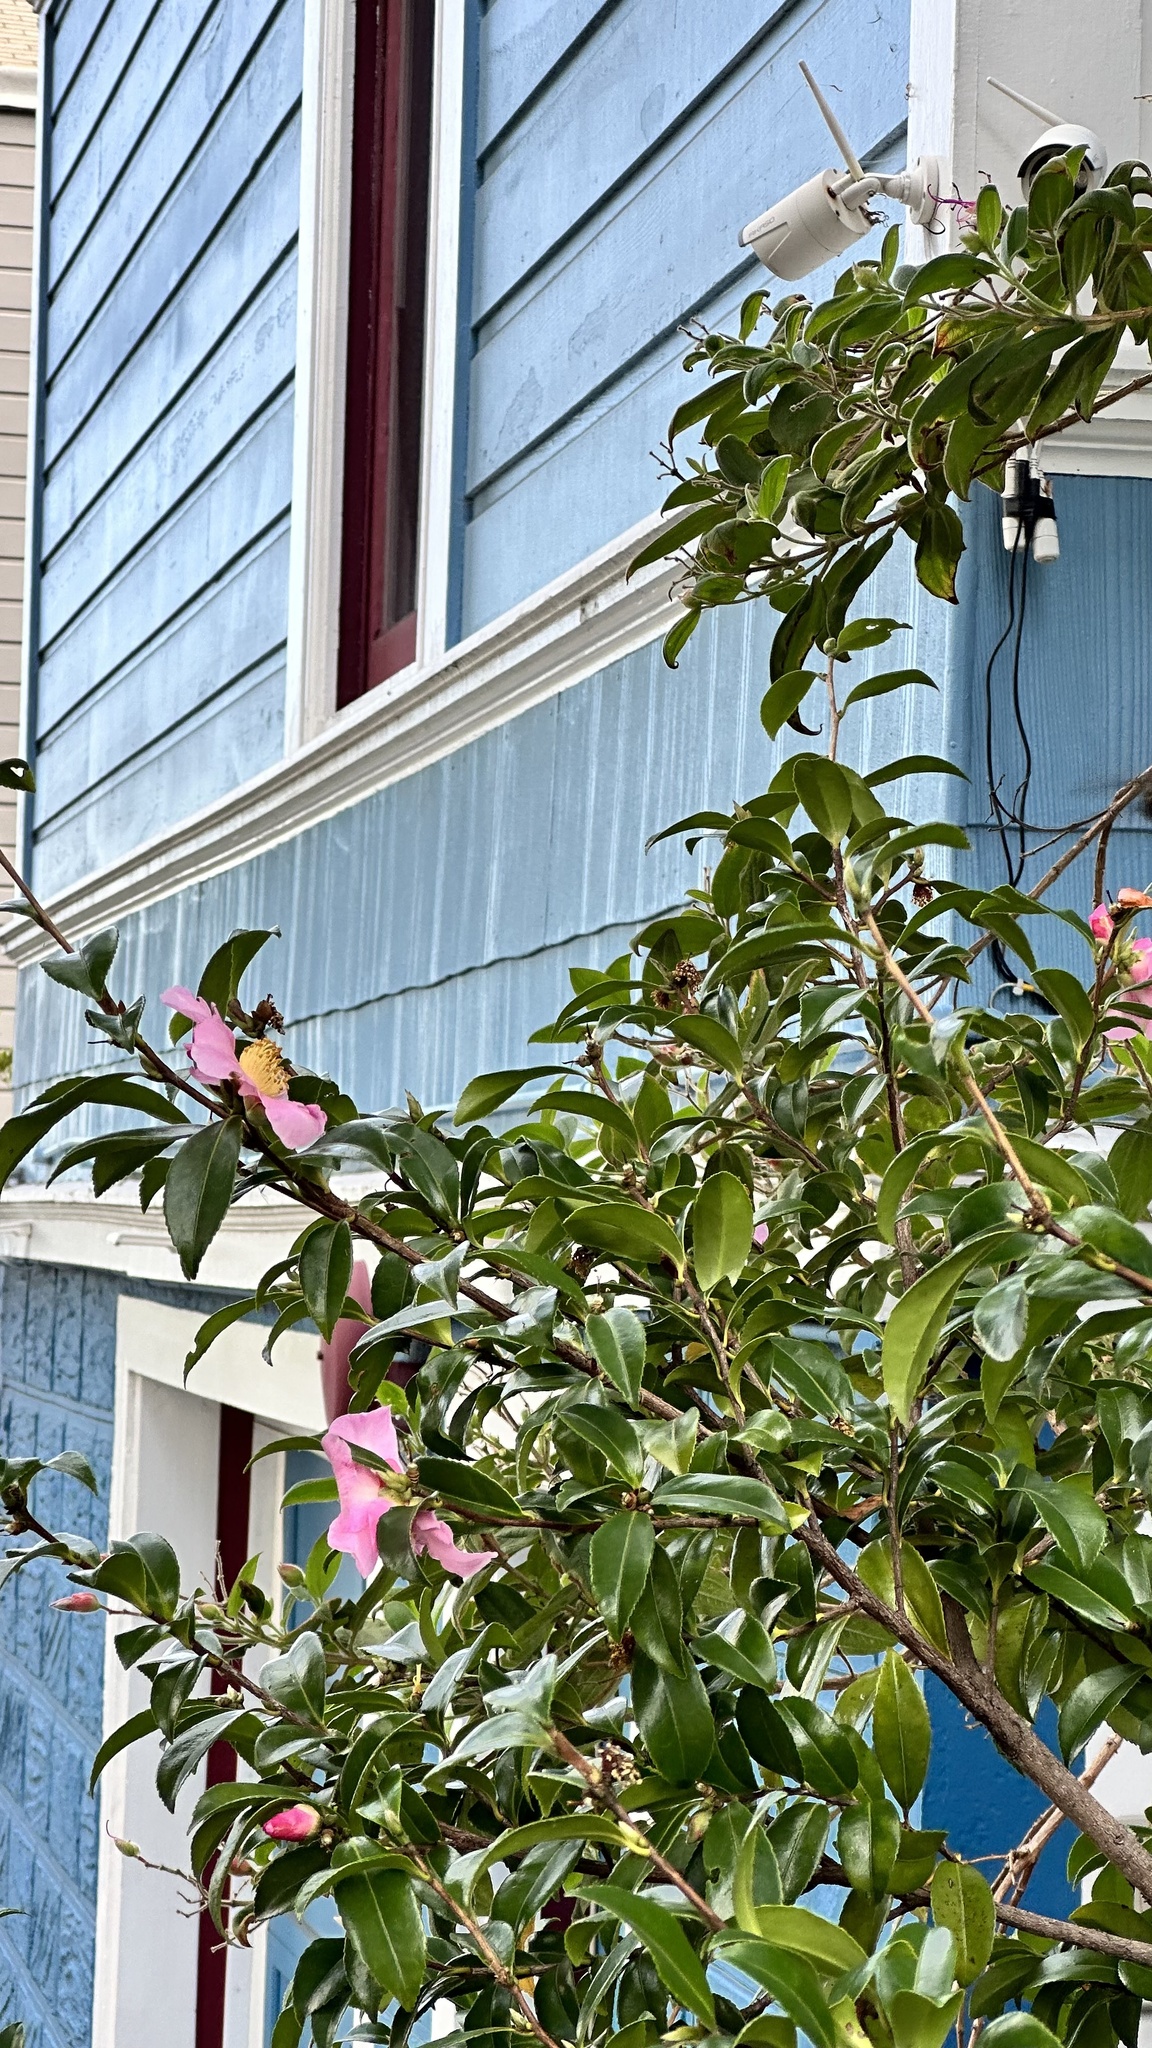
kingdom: Animalia
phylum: Chordata
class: Aves
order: Apodiformes
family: Trochilidae
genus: Calypte
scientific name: Calypte anna
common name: Anna's hummingbird
